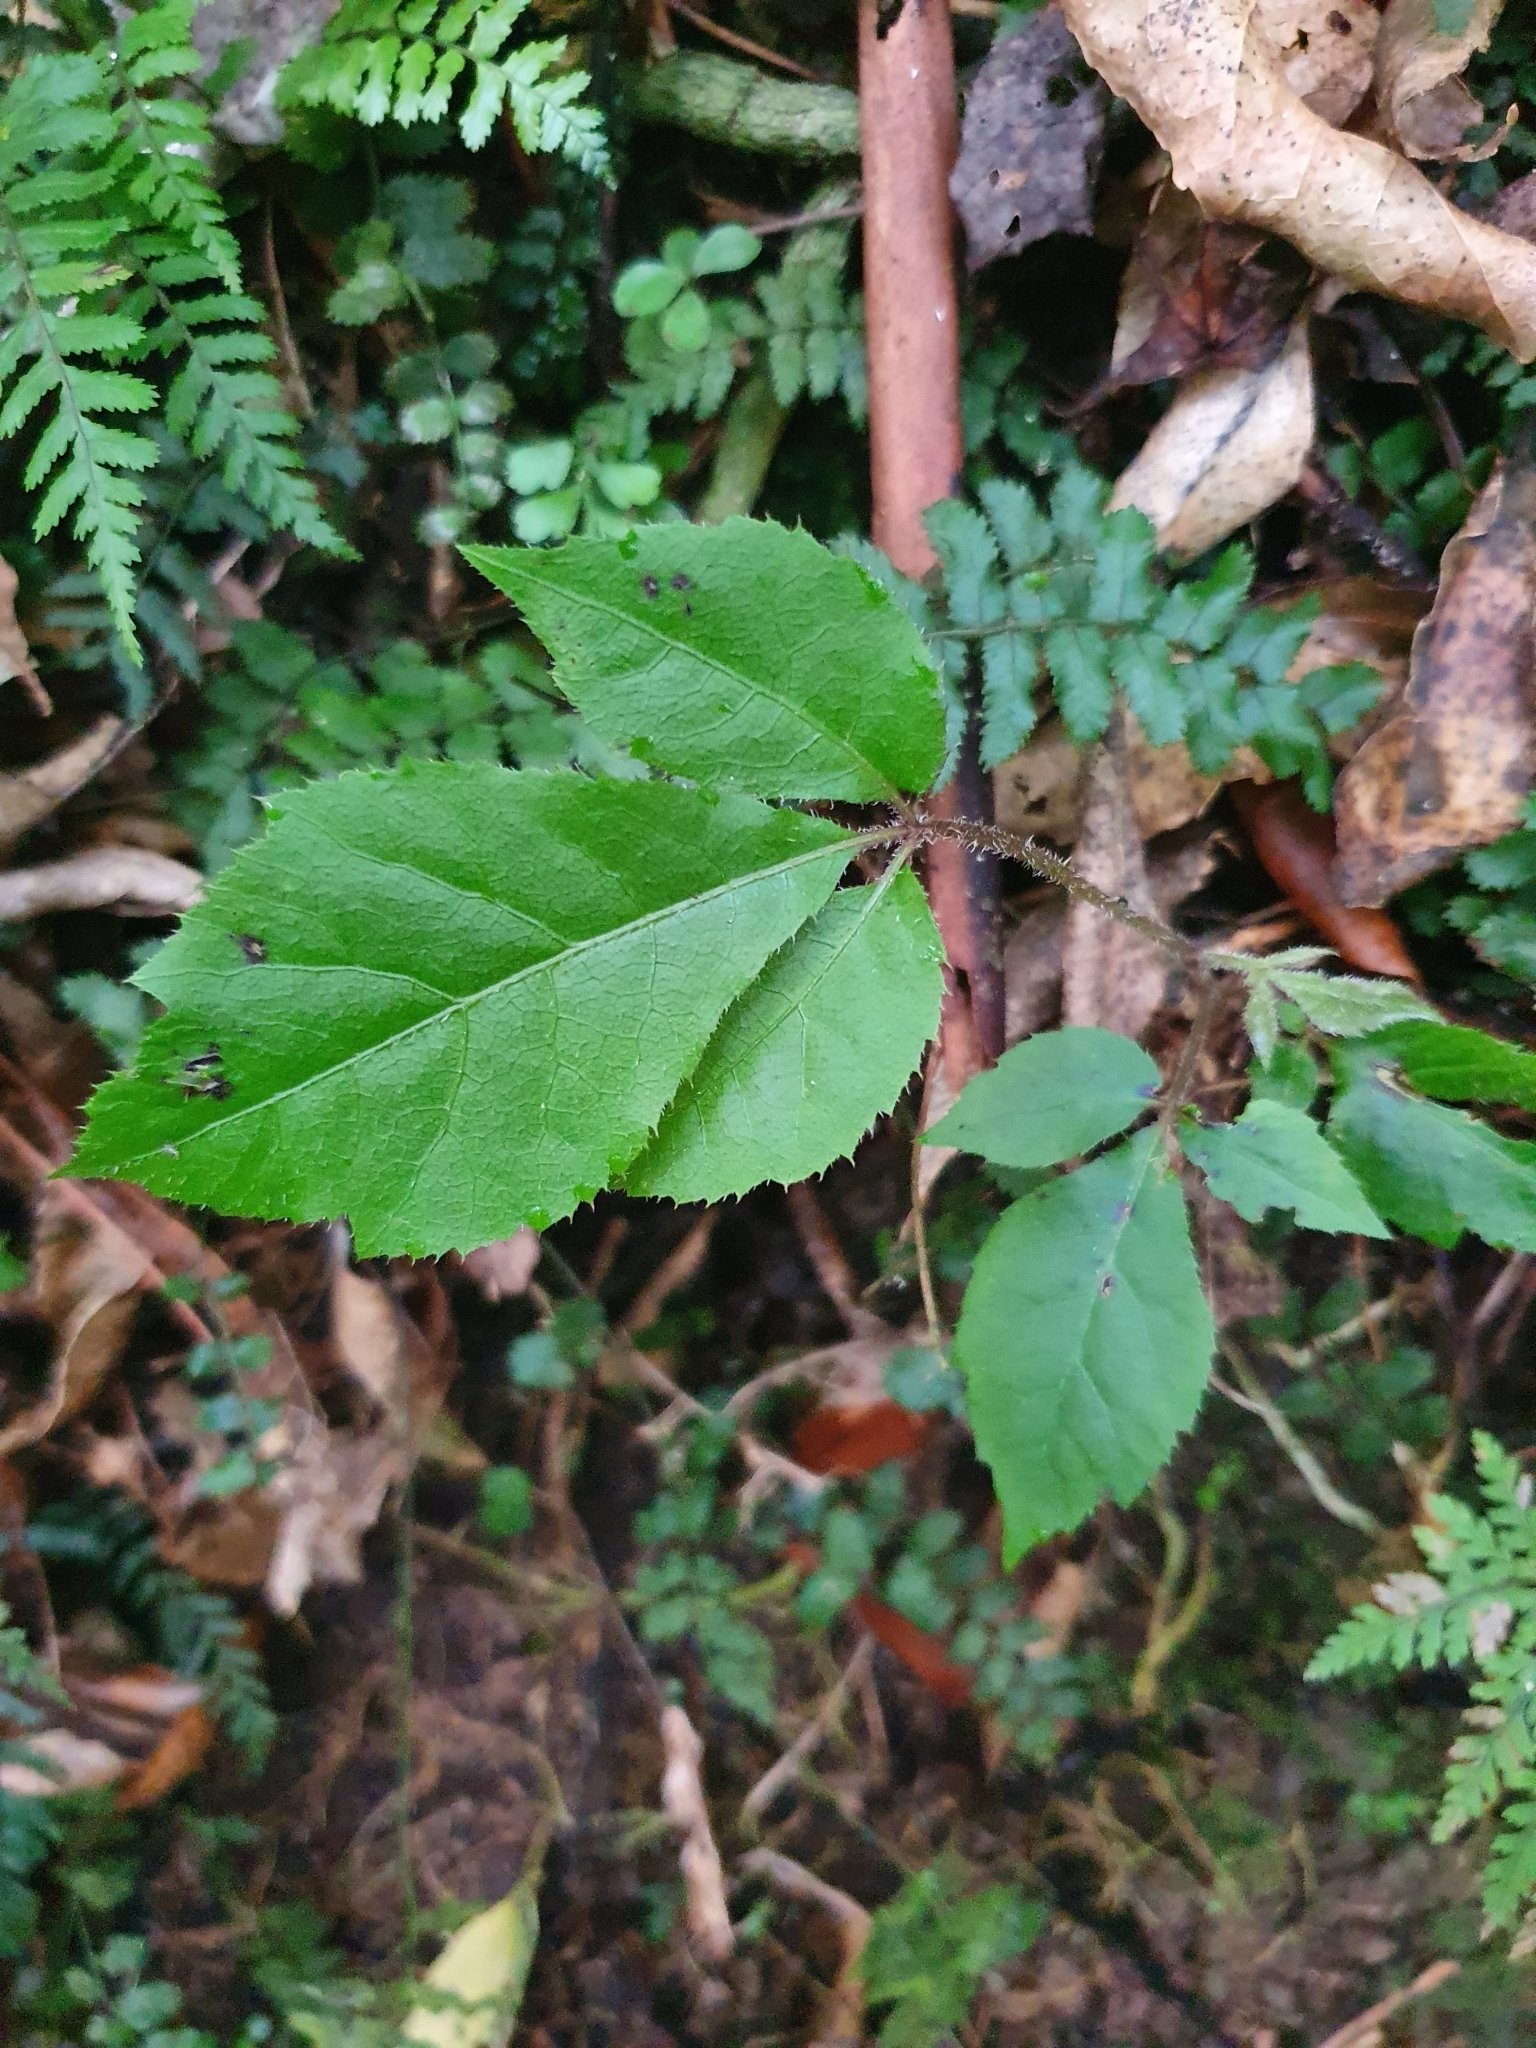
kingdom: Plantae
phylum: Tracheophyta
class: Magnoliopsida
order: Apiales
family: Araliaceae
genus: Schefflera
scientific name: Schefflera digitata
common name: Pate
